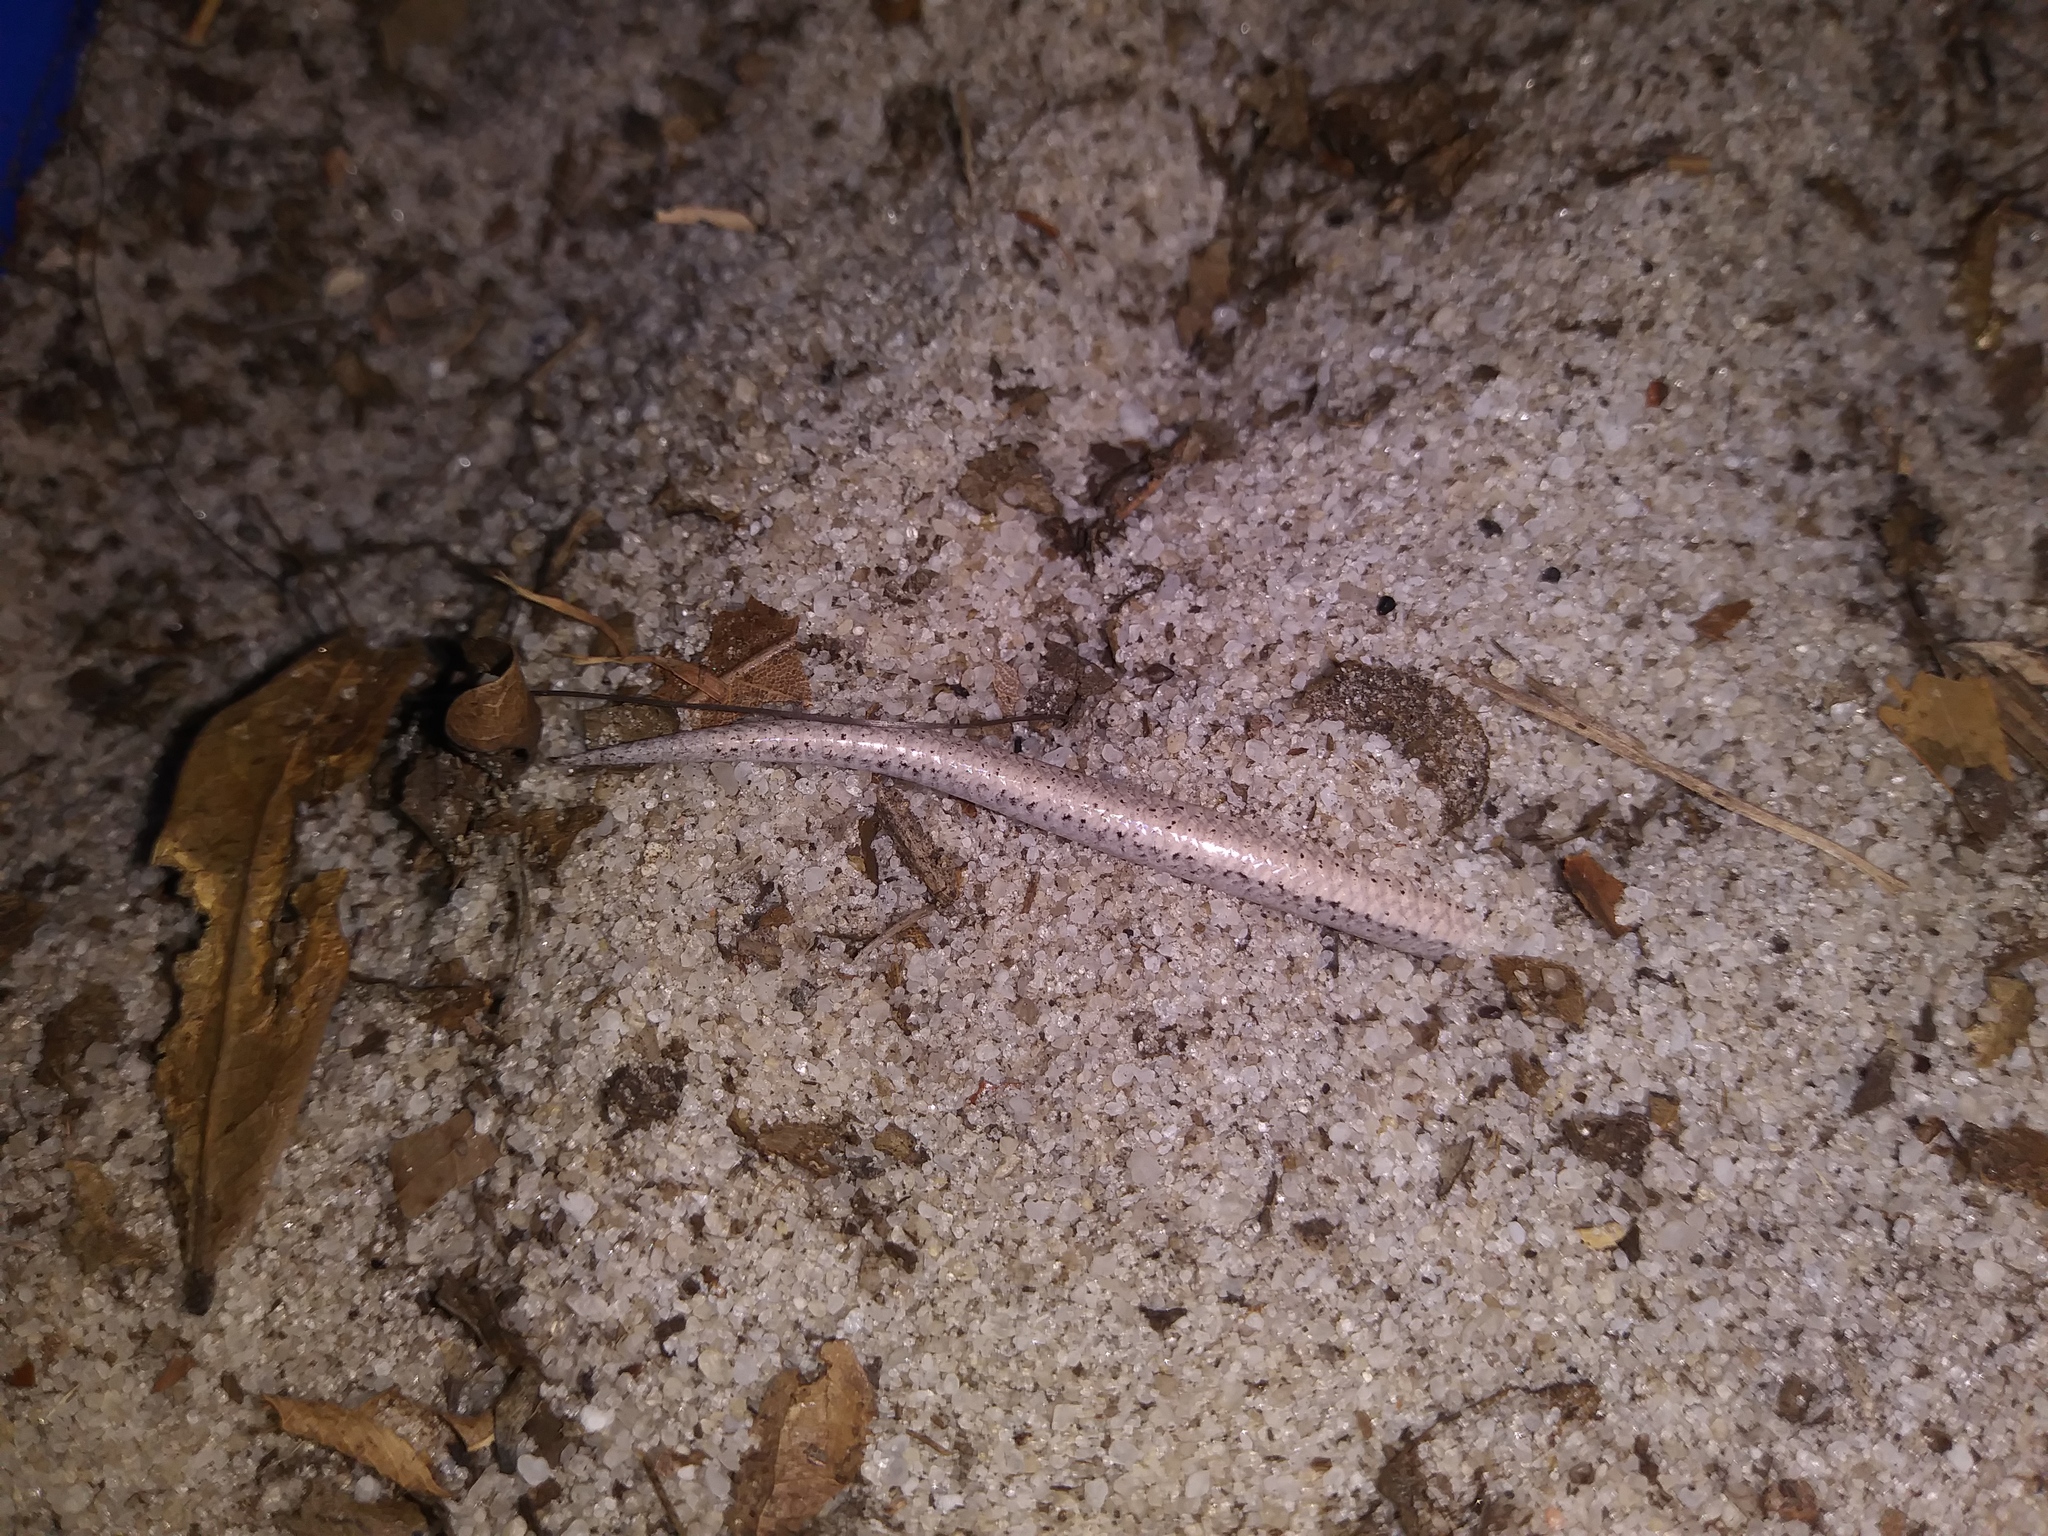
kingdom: Animalia
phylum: Chordata
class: Squamata
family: Scincidae
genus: Plestiodon
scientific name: Plestiodon reynoldsi
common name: Florida sand skink
